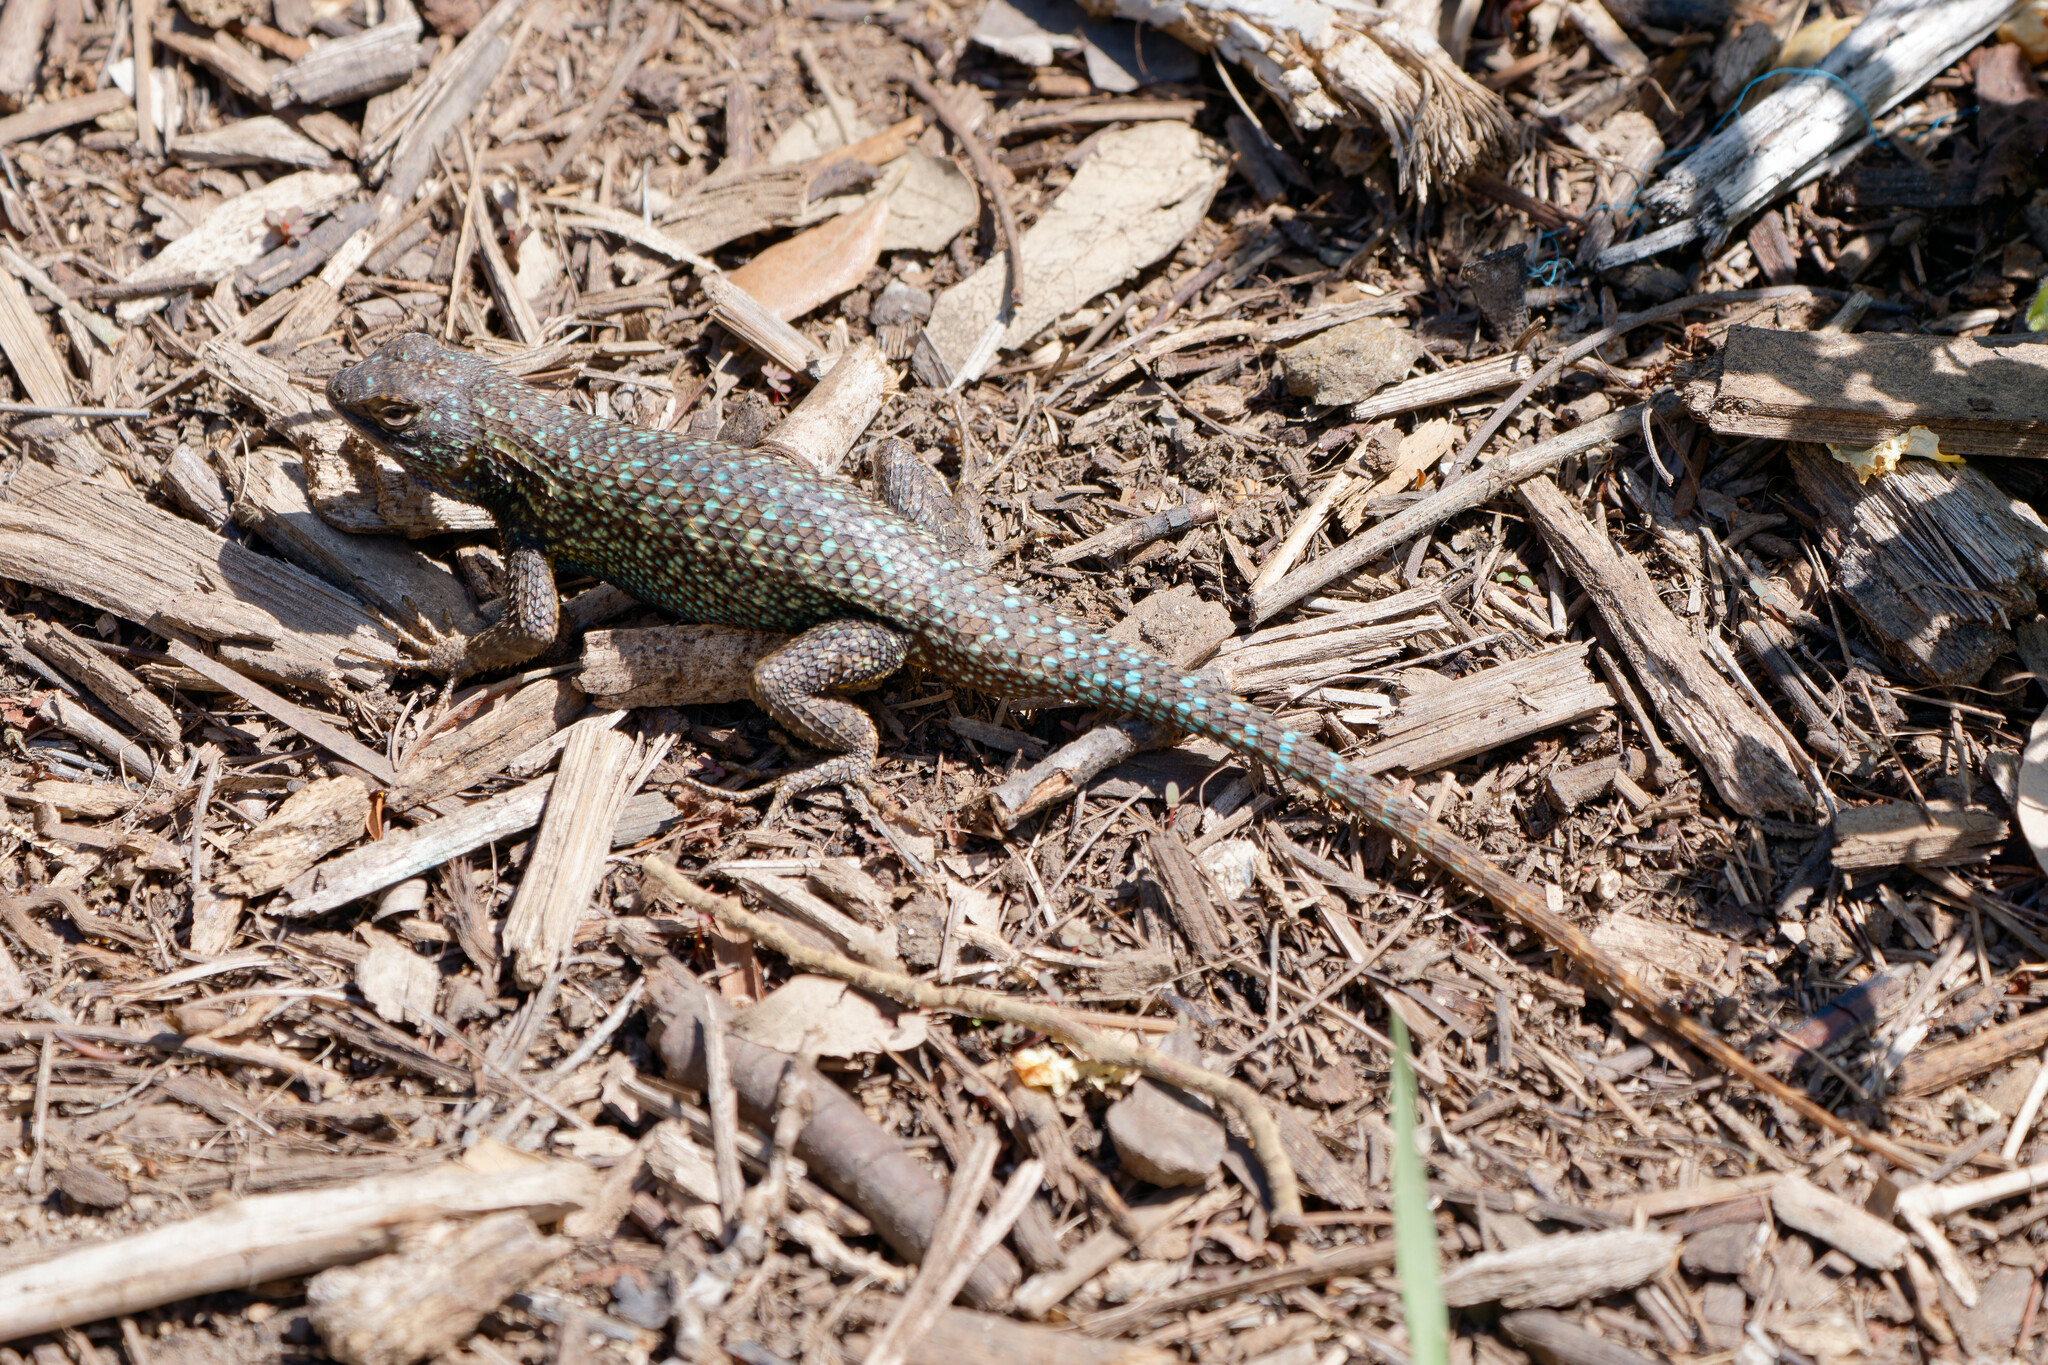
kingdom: Animalia
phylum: Chordata
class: Squamata
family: Phrynosomatidae
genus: Sceloporus
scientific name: Sceloporus occidentalis
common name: Western fence lizard
